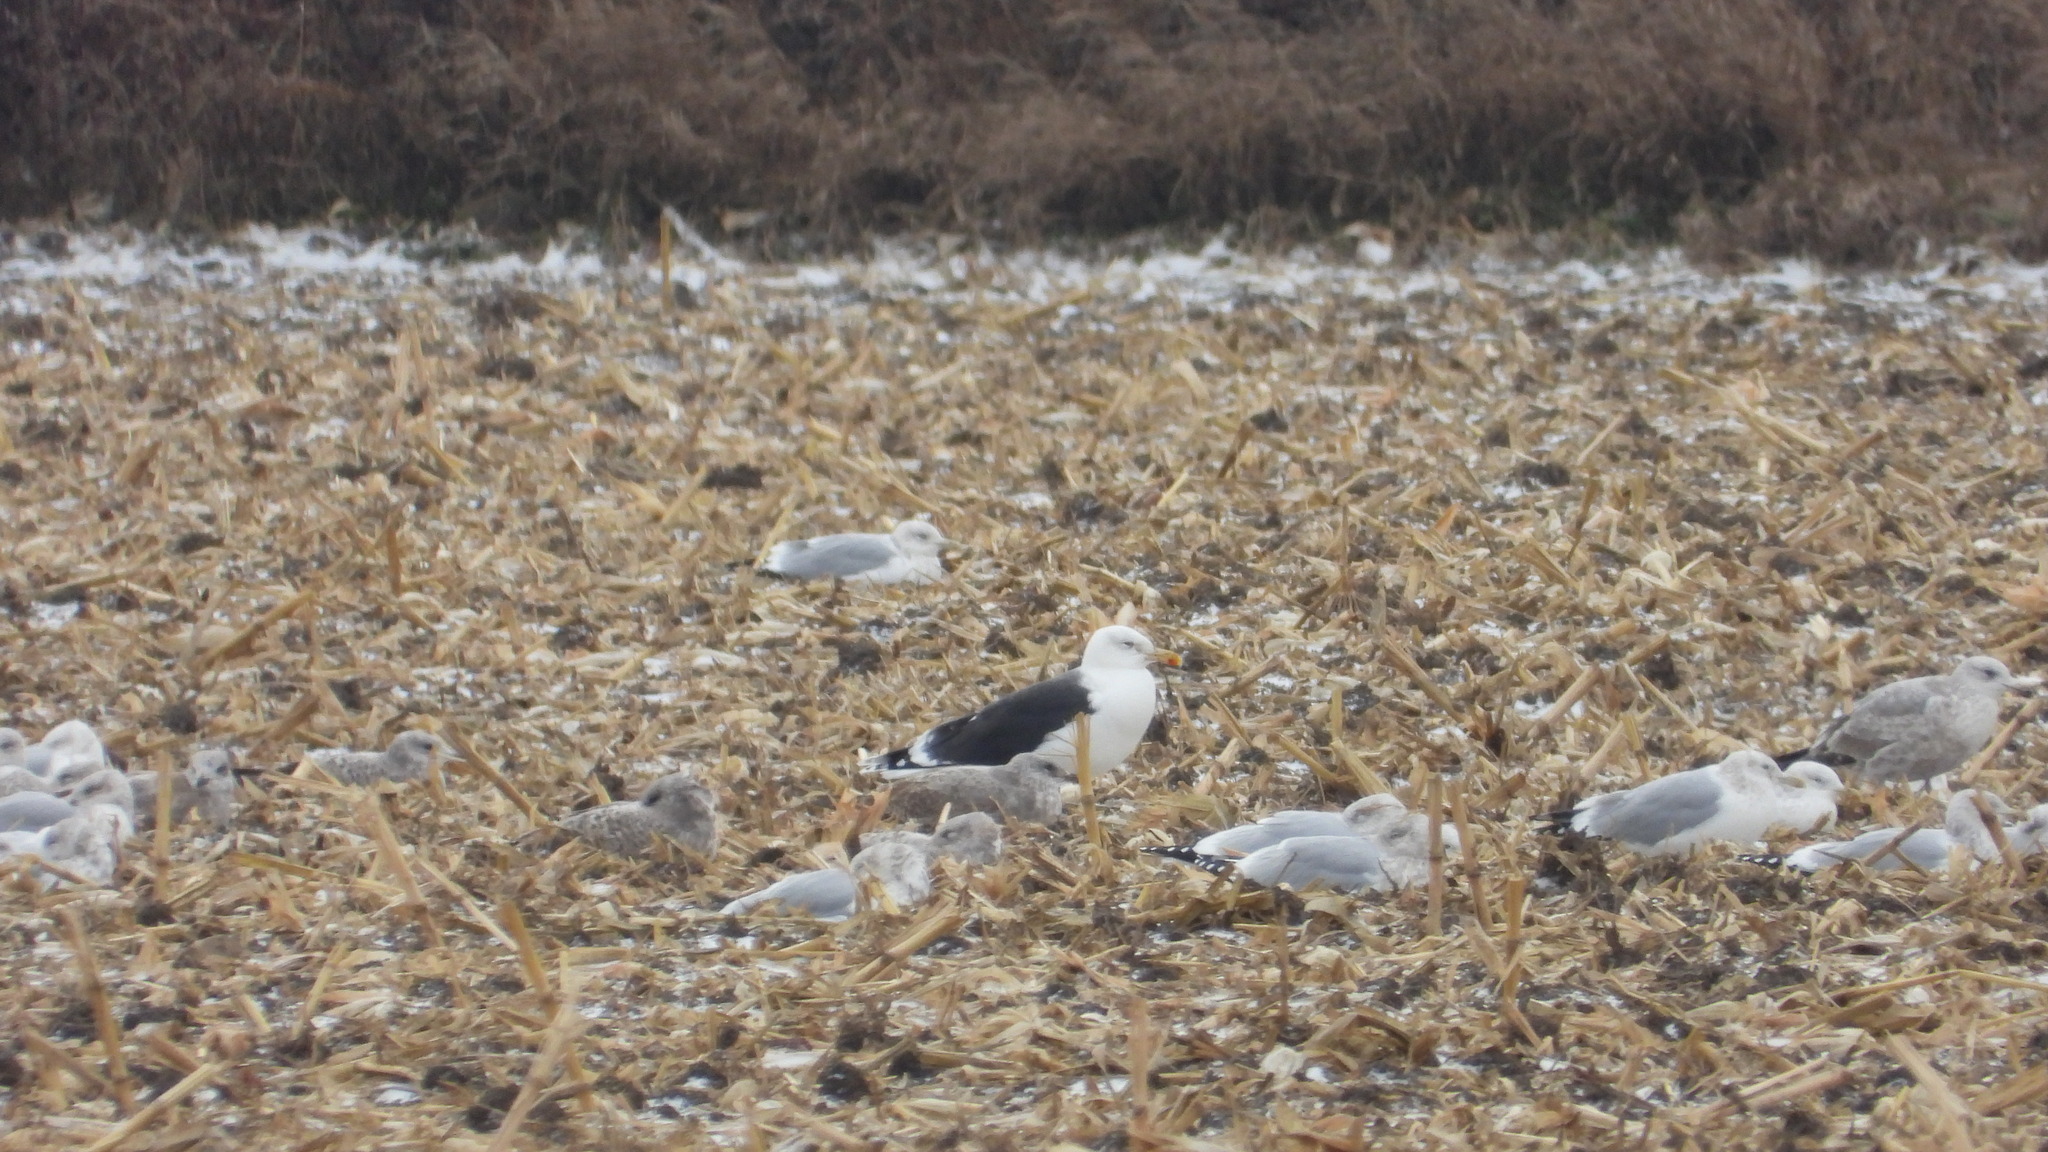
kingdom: Animalia
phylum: Chordata
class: Aves
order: Charadriiformes
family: Laridae
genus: Larus
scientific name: Larus marinus
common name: Great black-backed gull
